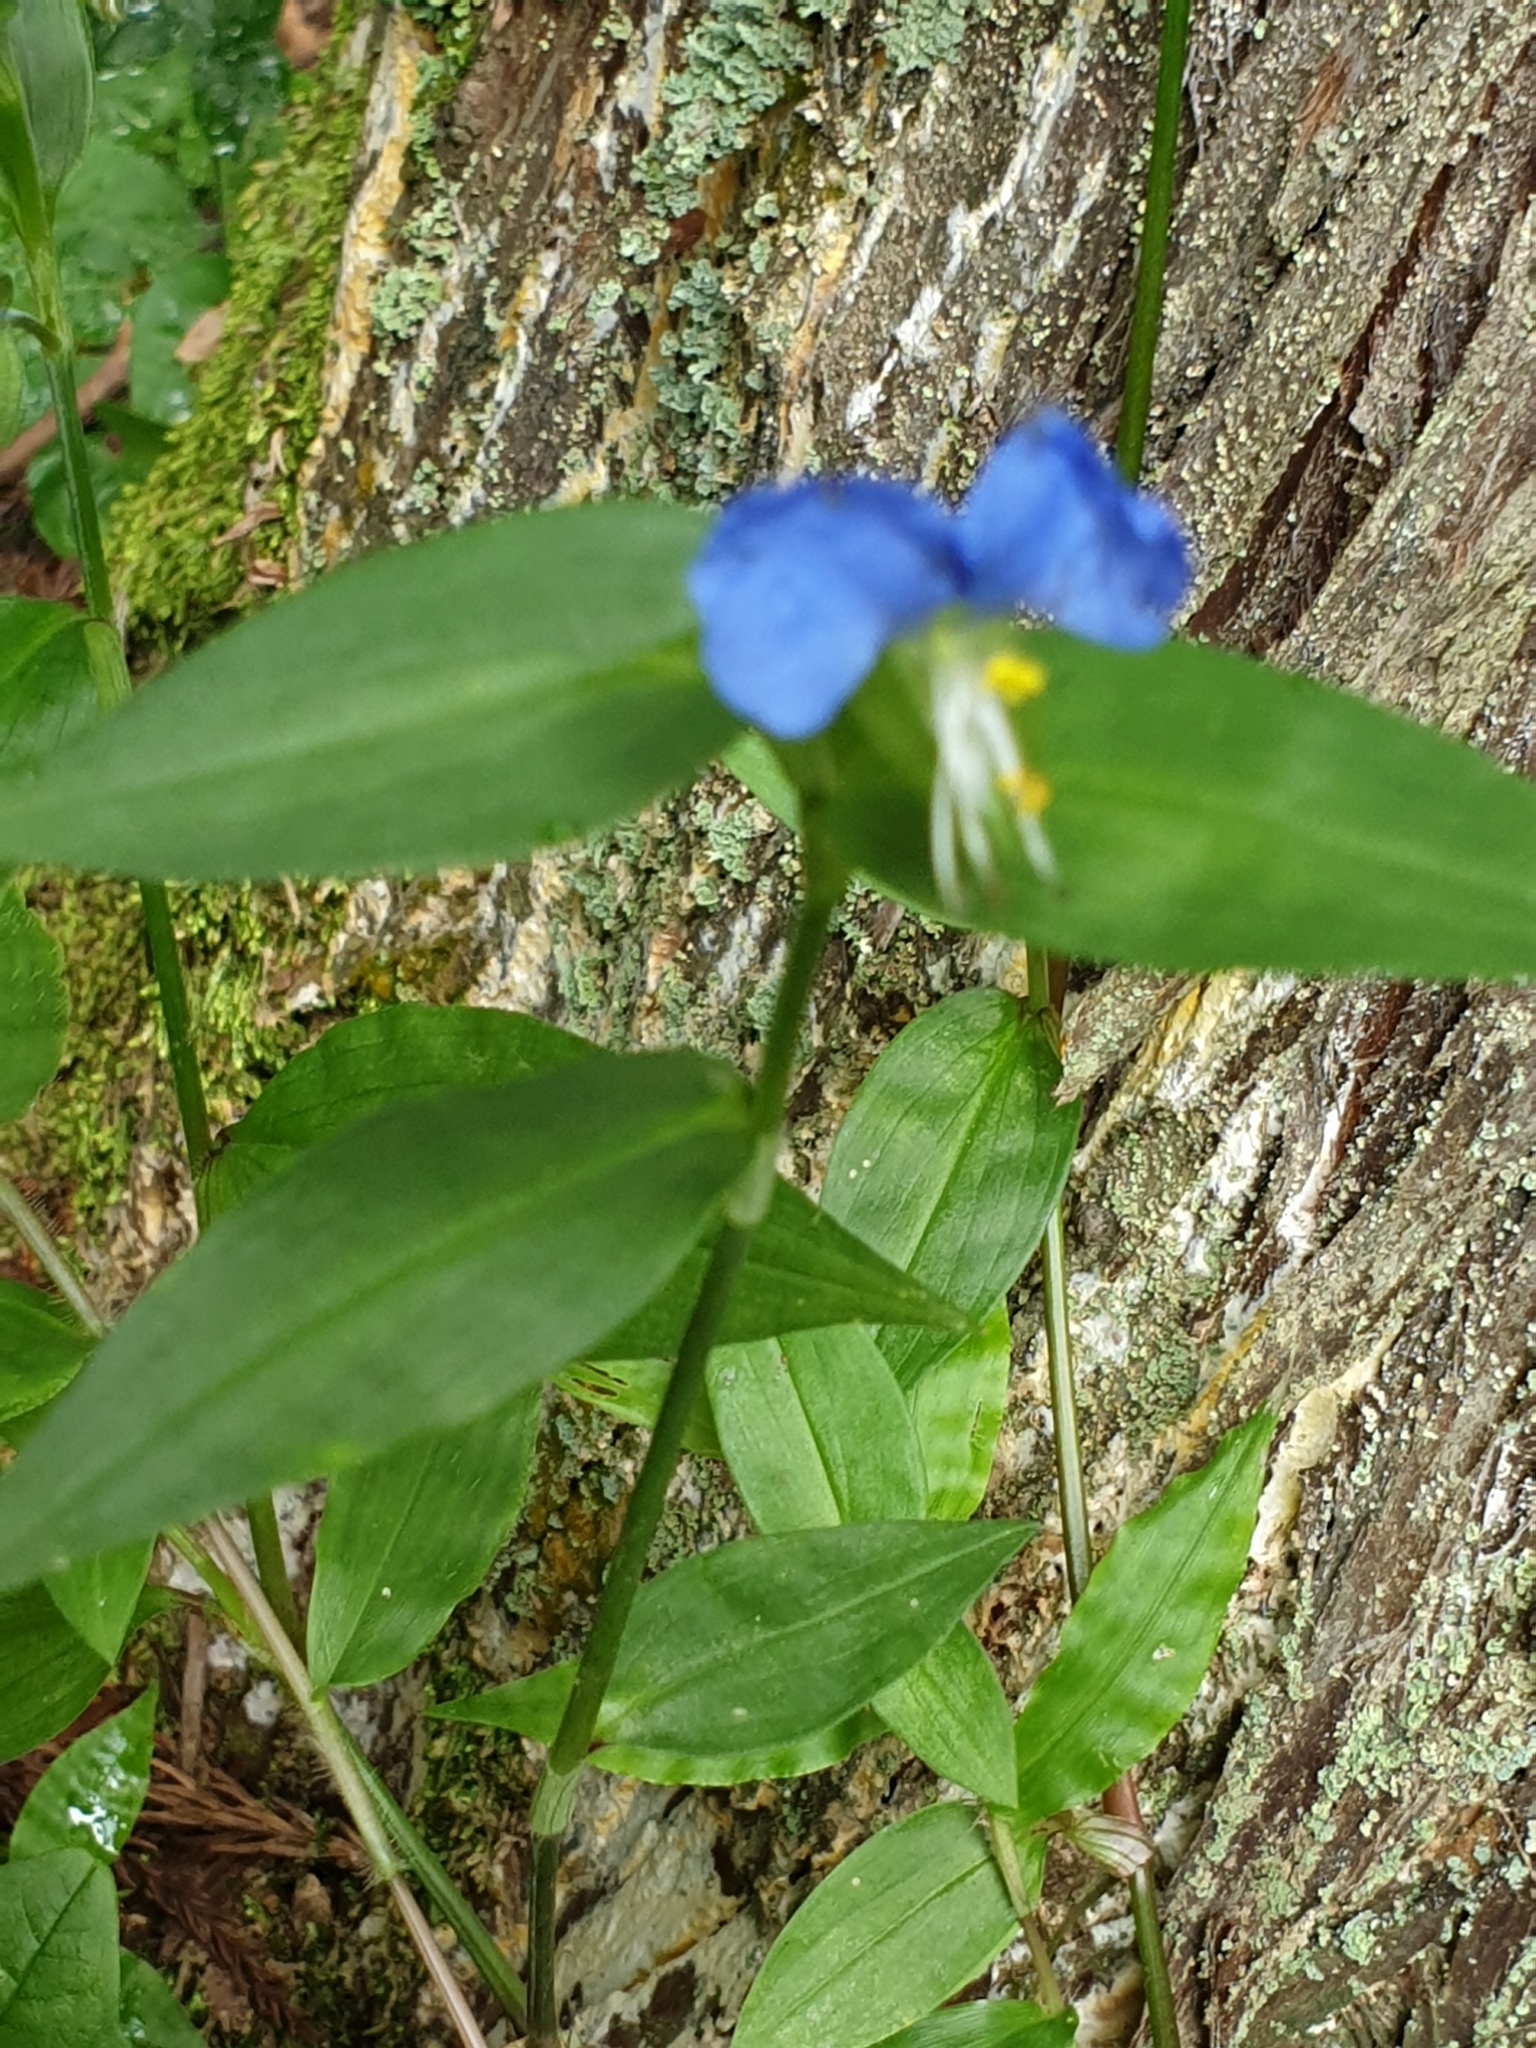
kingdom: Plantae
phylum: Tracheophyta
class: Liliopsida
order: Commelinales
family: Commelinaceae
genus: Commelina
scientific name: Commelina communis
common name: Asiatic dayflower
